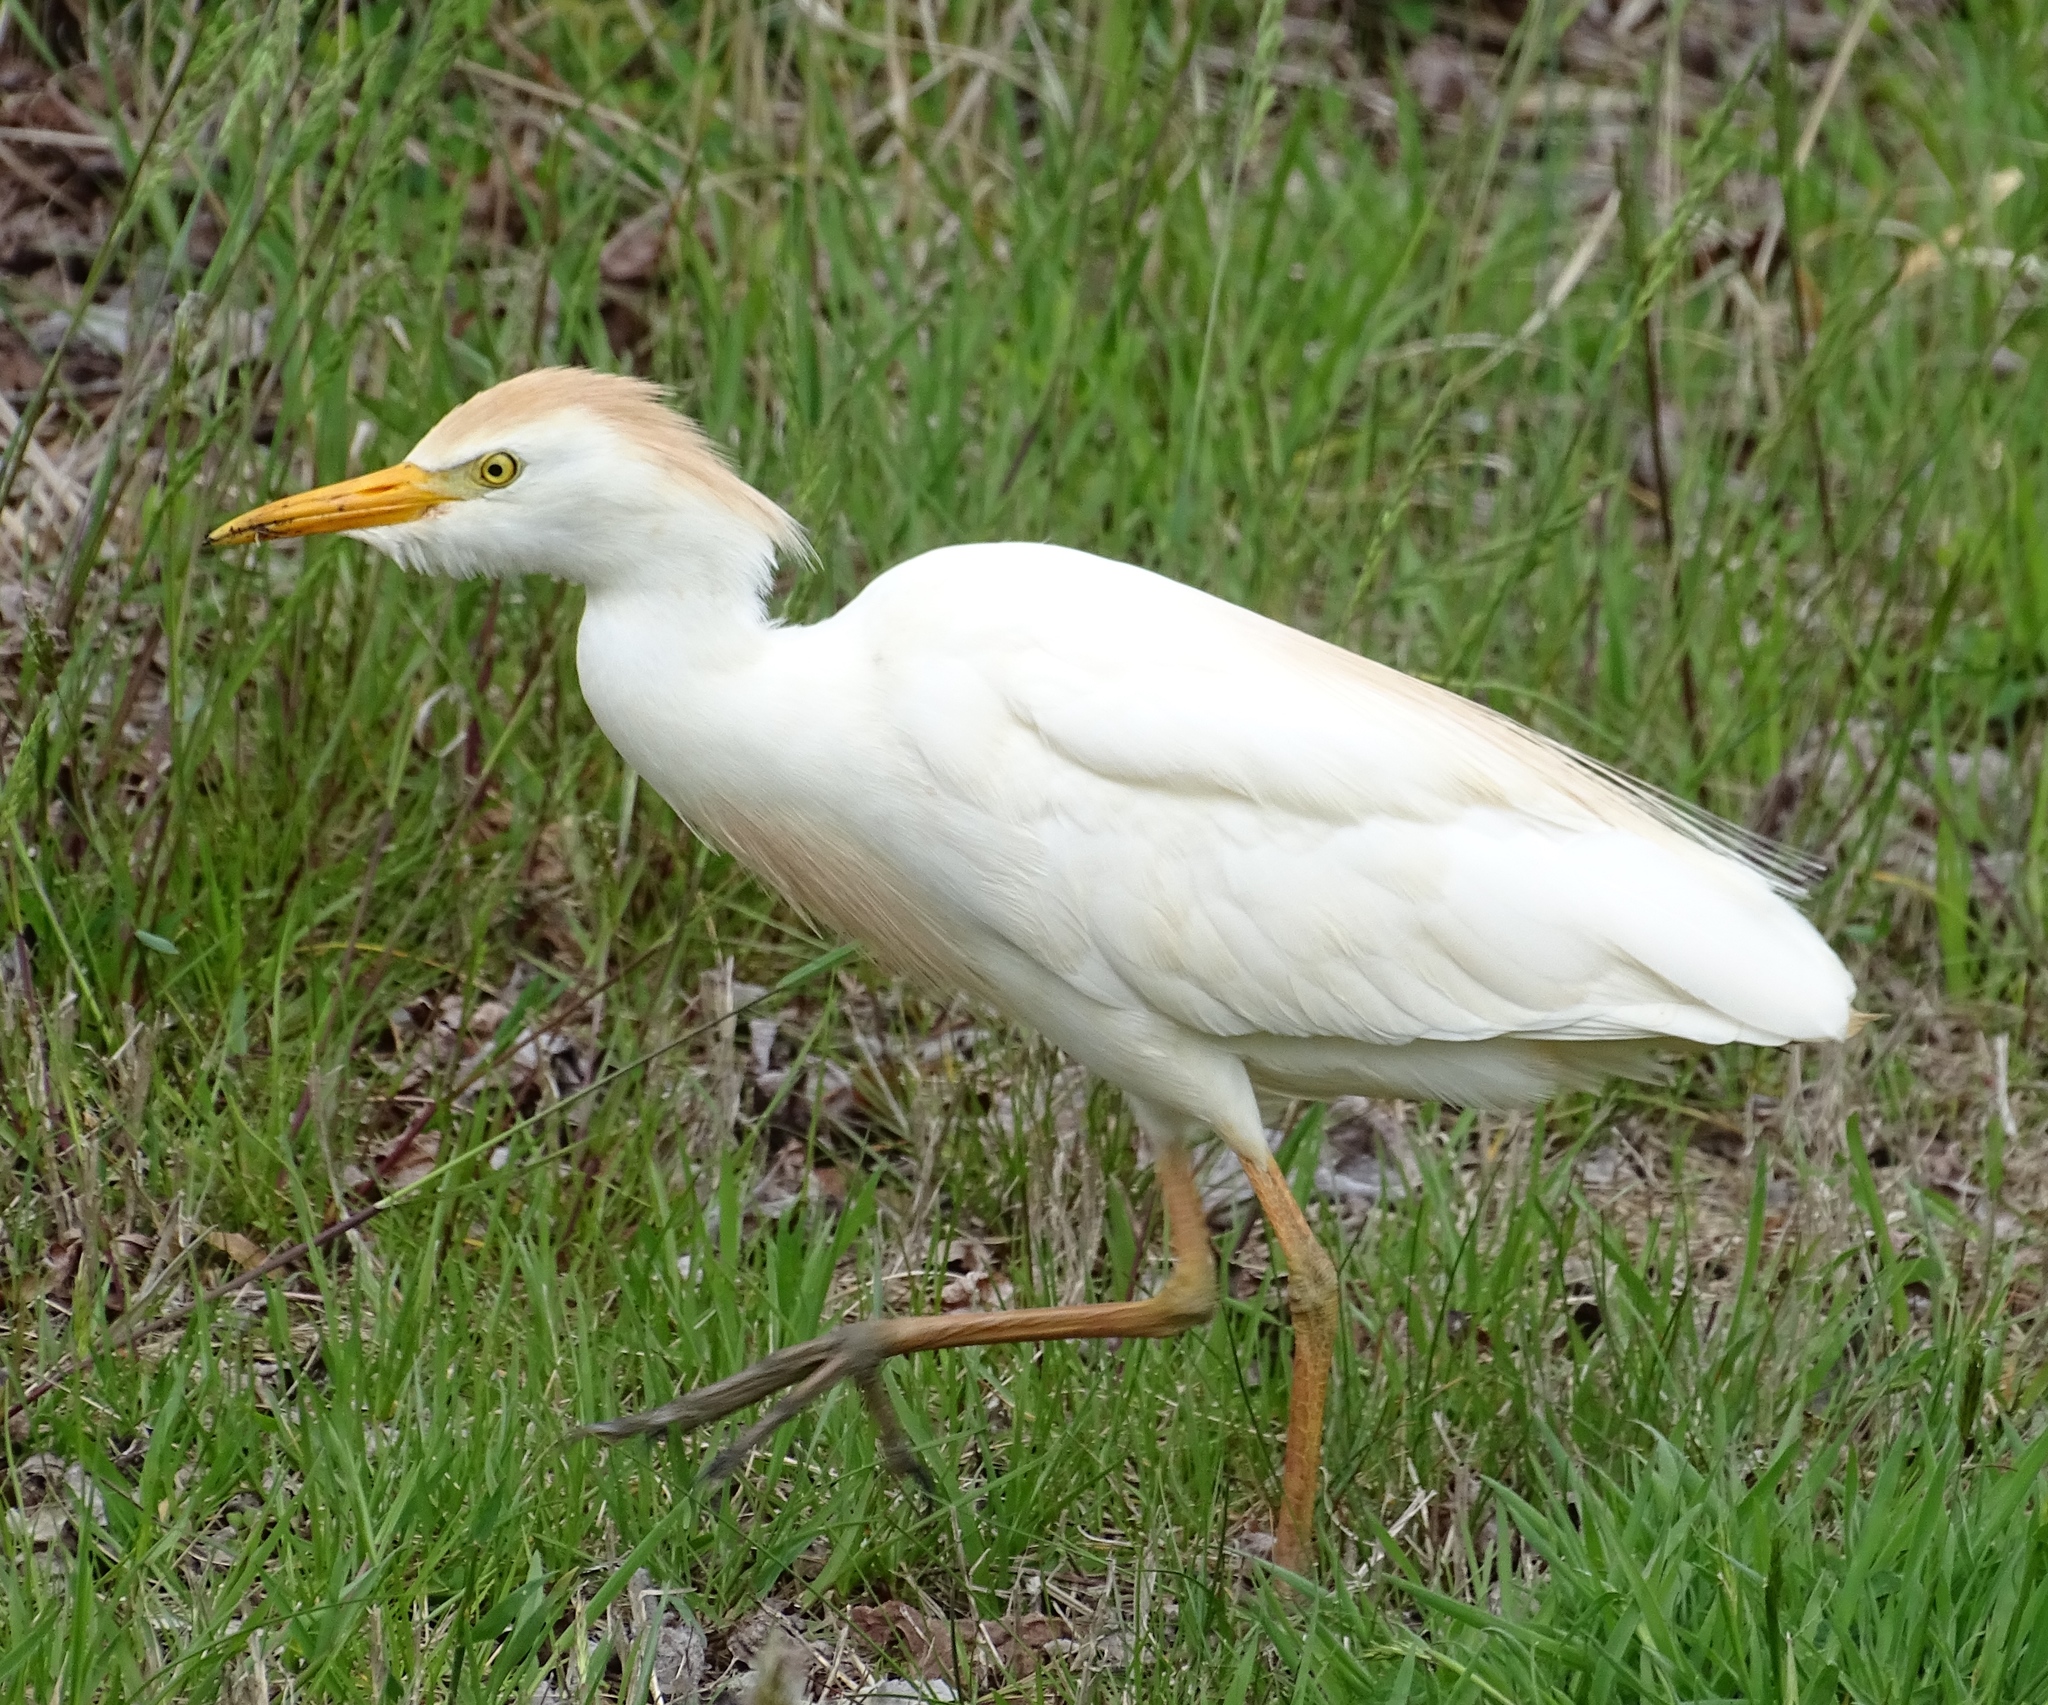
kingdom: Animalia
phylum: Chordata
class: Aves
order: Pelecaniformes
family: Ardeidae
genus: Bubulcus
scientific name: Bubulcus ibis
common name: Cattle egret
